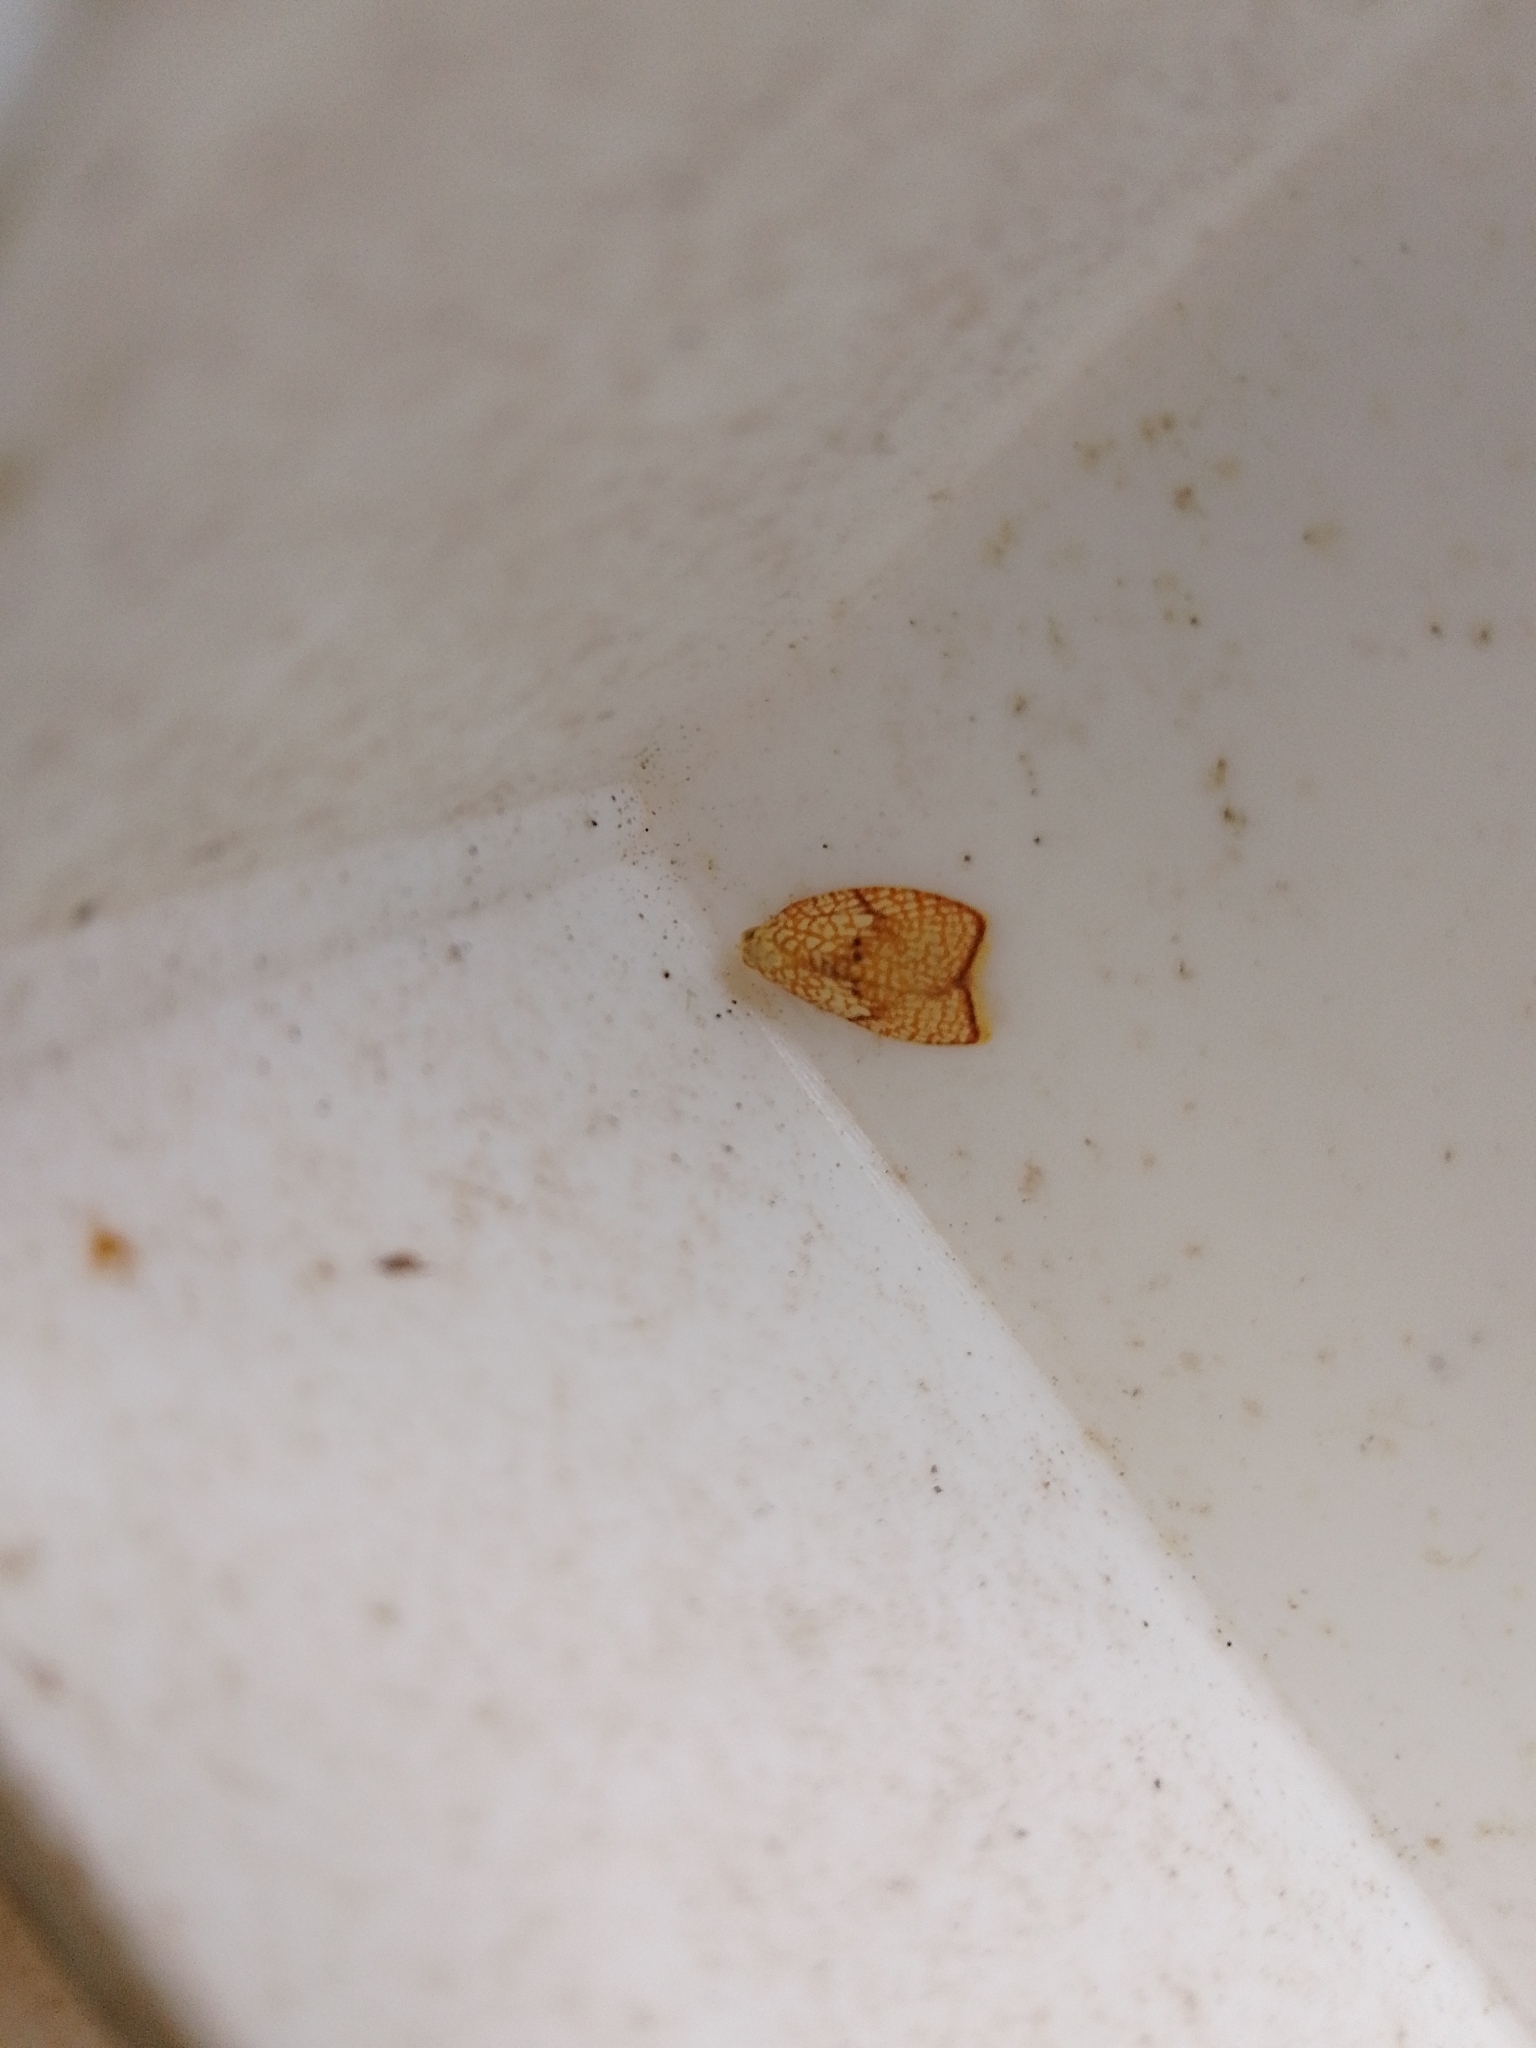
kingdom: Animalia
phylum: Arthropoda
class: Insecta
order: Lepidoptera
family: Tortricidae
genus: Acleris
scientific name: Acleris forsskaleana
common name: Maple button
